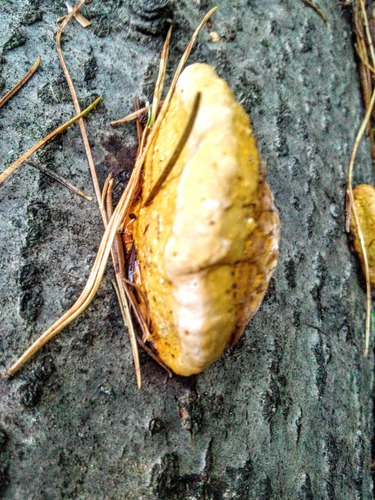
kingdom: Fungi
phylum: Basidiomycota
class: Agaricomycetes
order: Polyporales
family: Fomitopsidaceae
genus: Fomitopsis
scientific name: Fomitopsis pinicola
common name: Red-belted bracket
